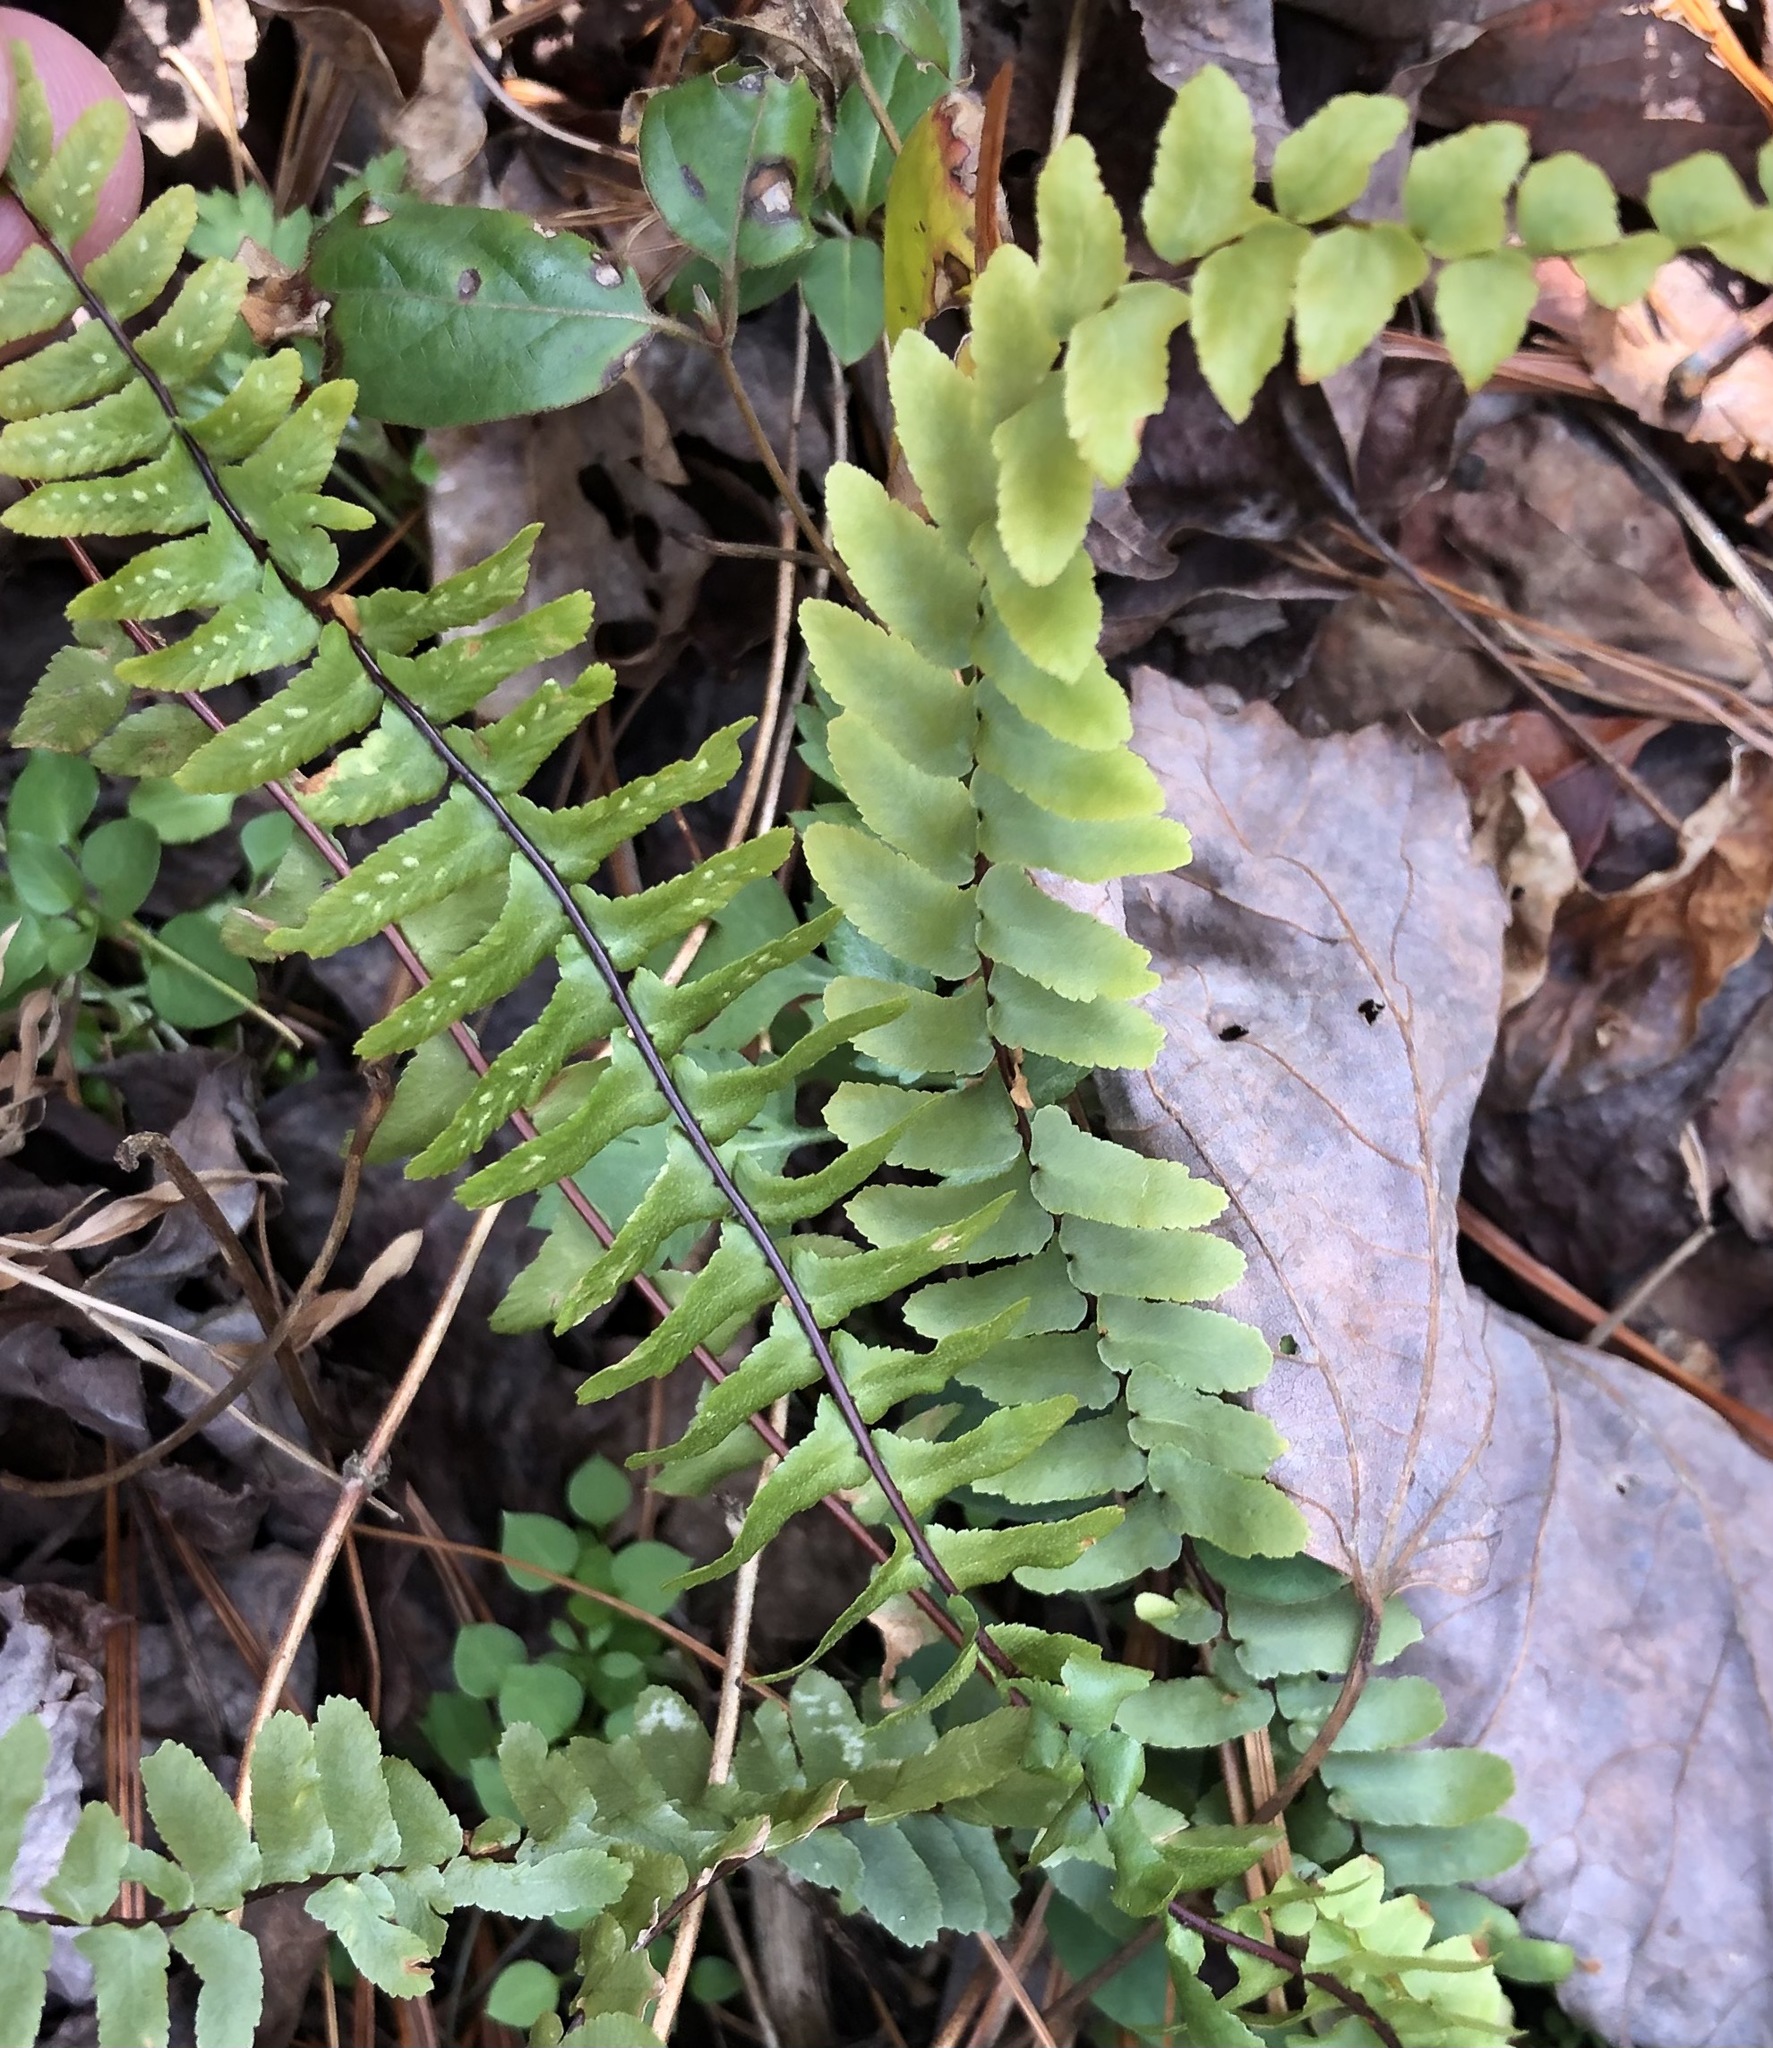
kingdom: Plantae
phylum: Tracheophyta
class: Polypodiopsida
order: Polypodiales
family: Aspleniaceae
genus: Asplenium
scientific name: Asplenium platyneuron
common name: Ebony spleenwort
